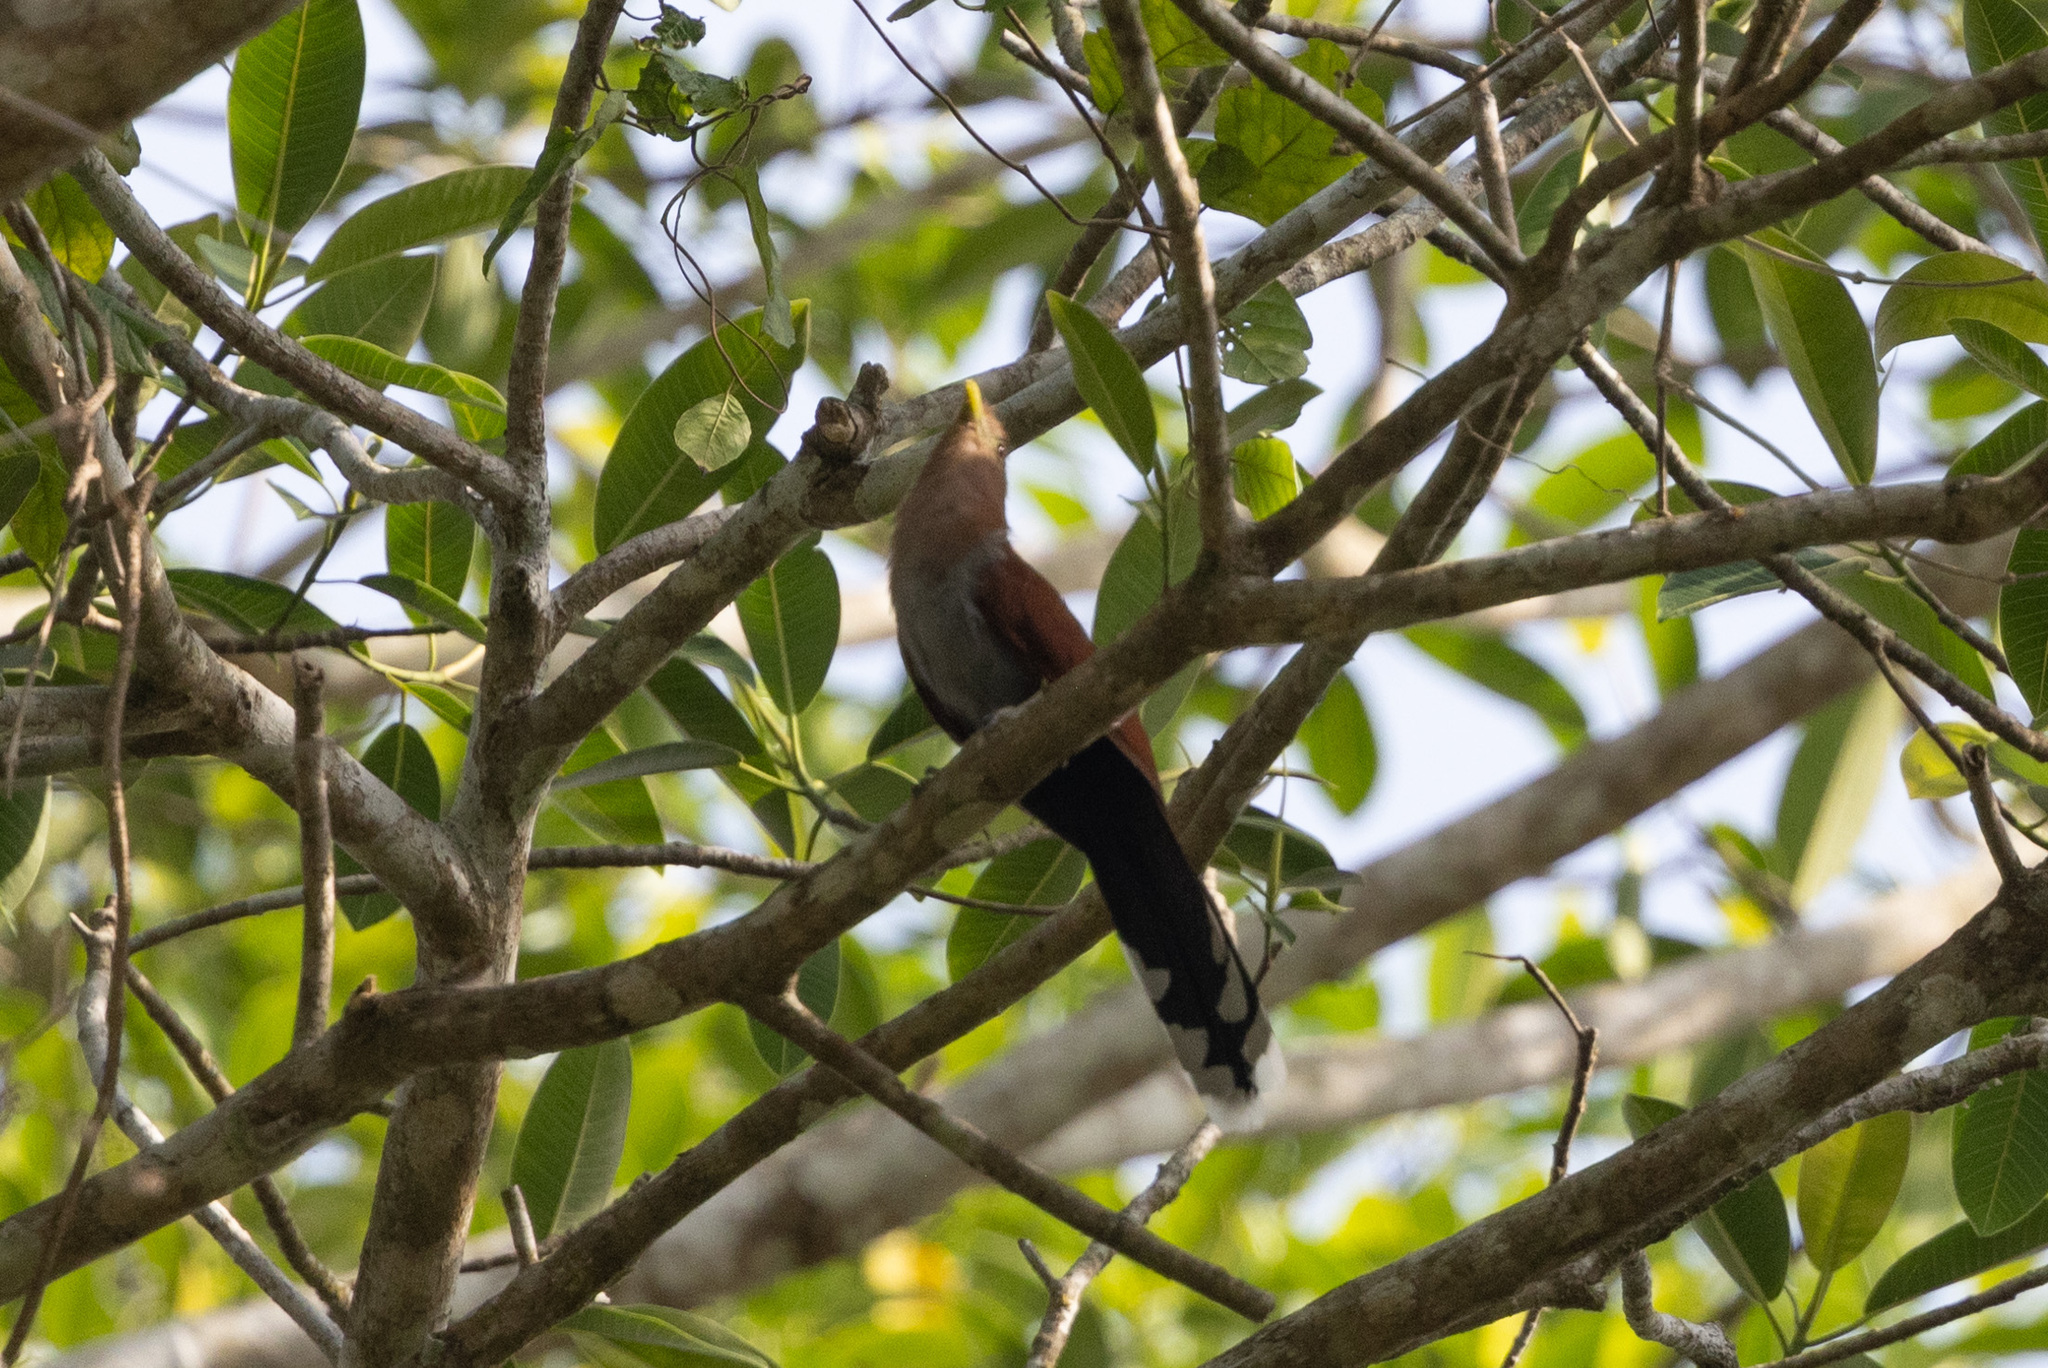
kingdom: Animalia
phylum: Chordata
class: Aves
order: Cuculiformes
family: Cuculidae
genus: Piaya
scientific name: Piaya cayana
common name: Squirrel cuckoo
